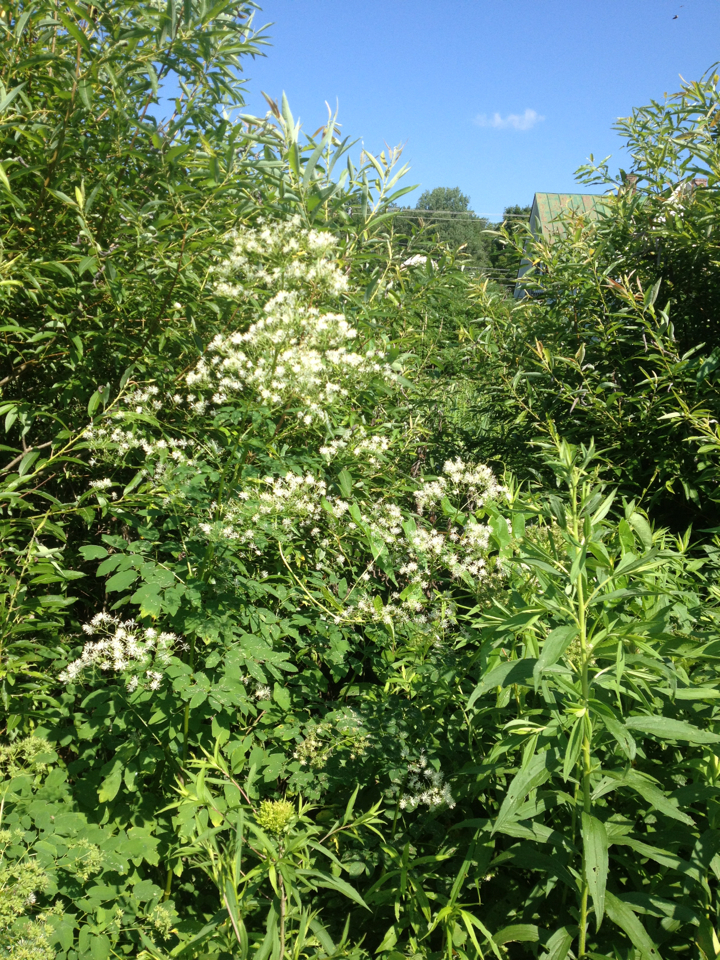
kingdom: Plantae
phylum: Tracheophyta
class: Magnoliopsida
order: Ranunculales
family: Ranunculaceae
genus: Thalictrum
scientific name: Thalictrum pubescens
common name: King-of-the-meadow
